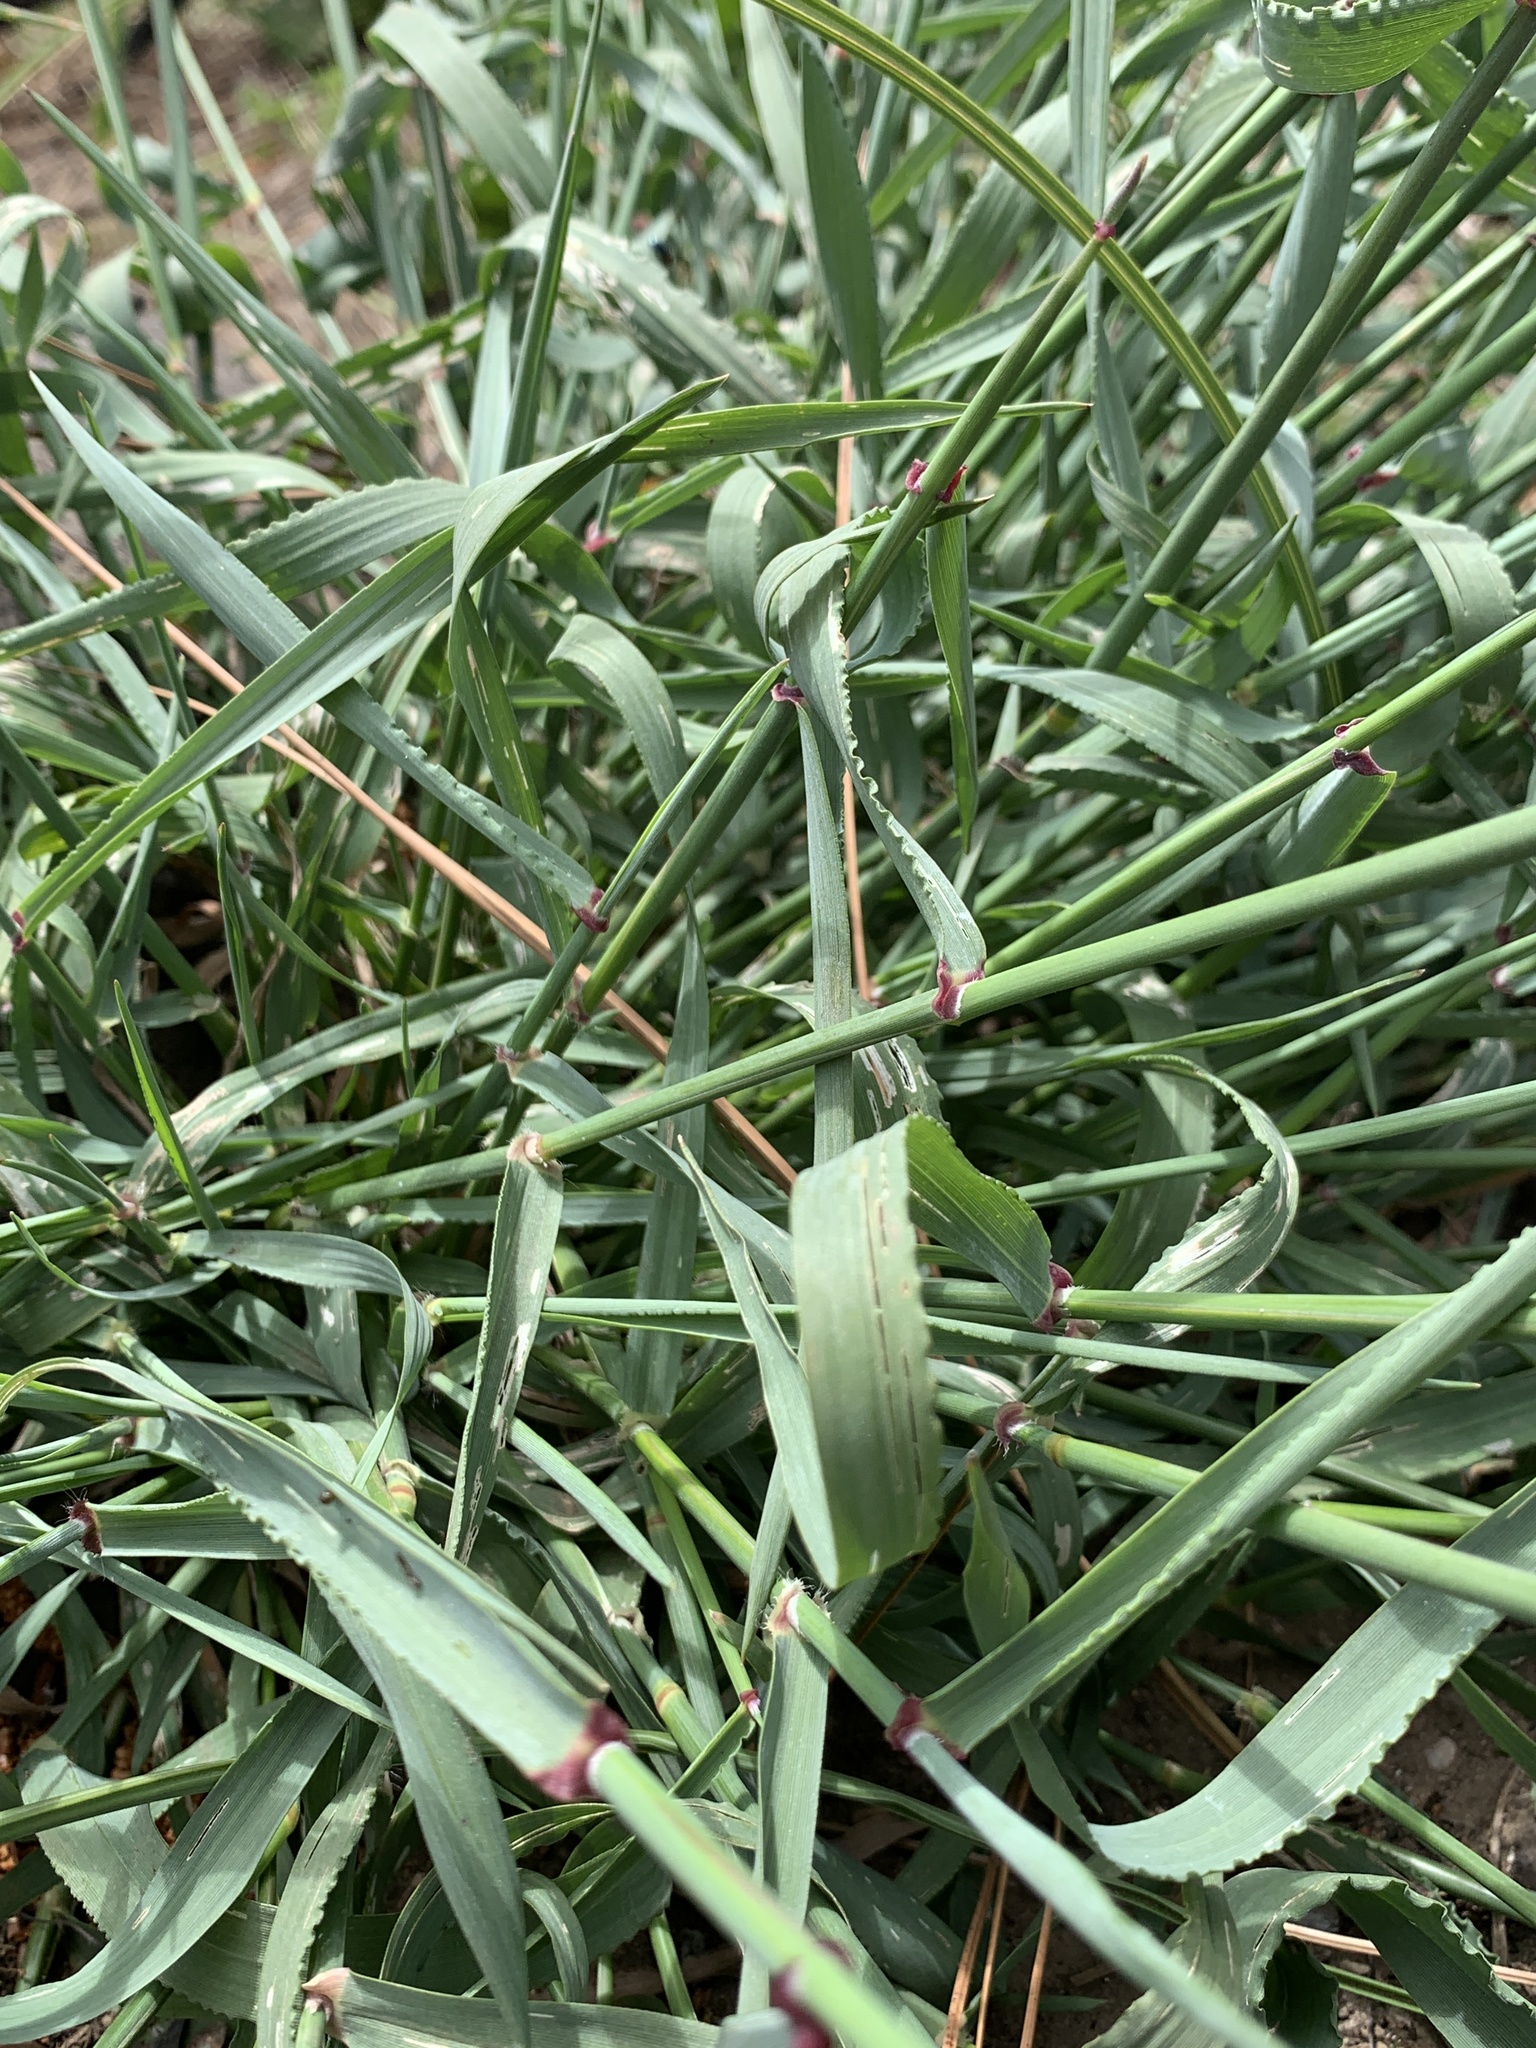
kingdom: Plantae
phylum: Tracheophyta
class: Liliopsida
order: Poales
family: Poaceae
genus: Ehrharta
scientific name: Ehrharta calycina
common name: Perennial veldtgrass
